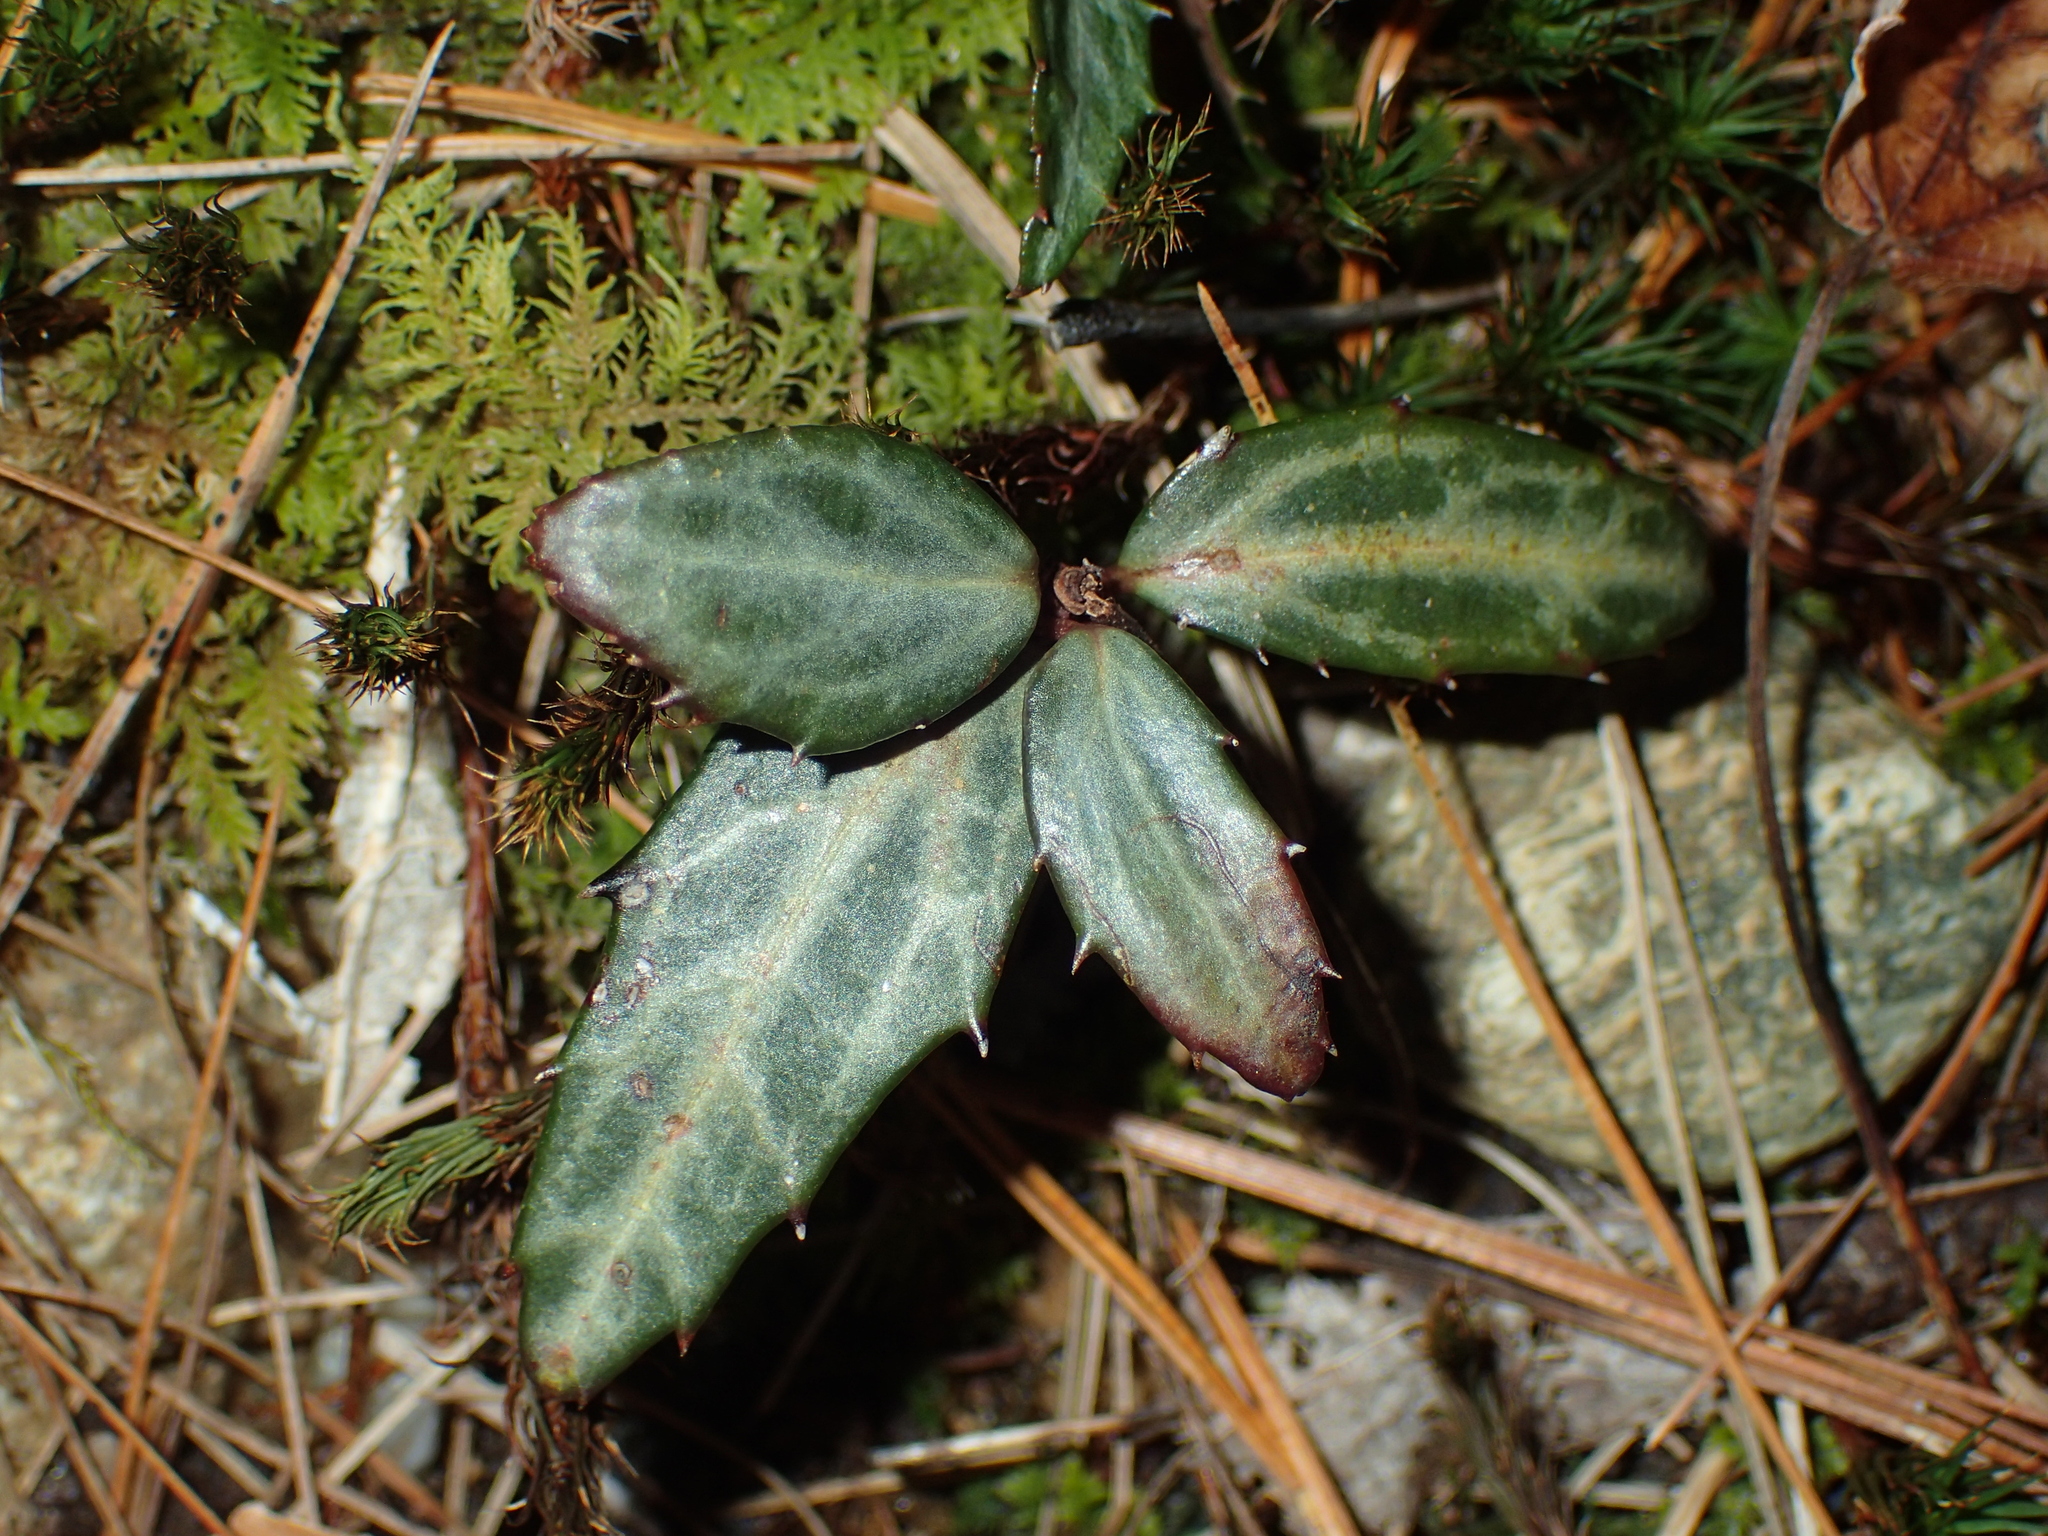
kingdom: Plantae
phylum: Tracheophyta
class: Magnoliopsida
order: Ericales
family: Ericaceae
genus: Chimaphila
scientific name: Chimaphila maculata
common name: Spotted pipsissewa
